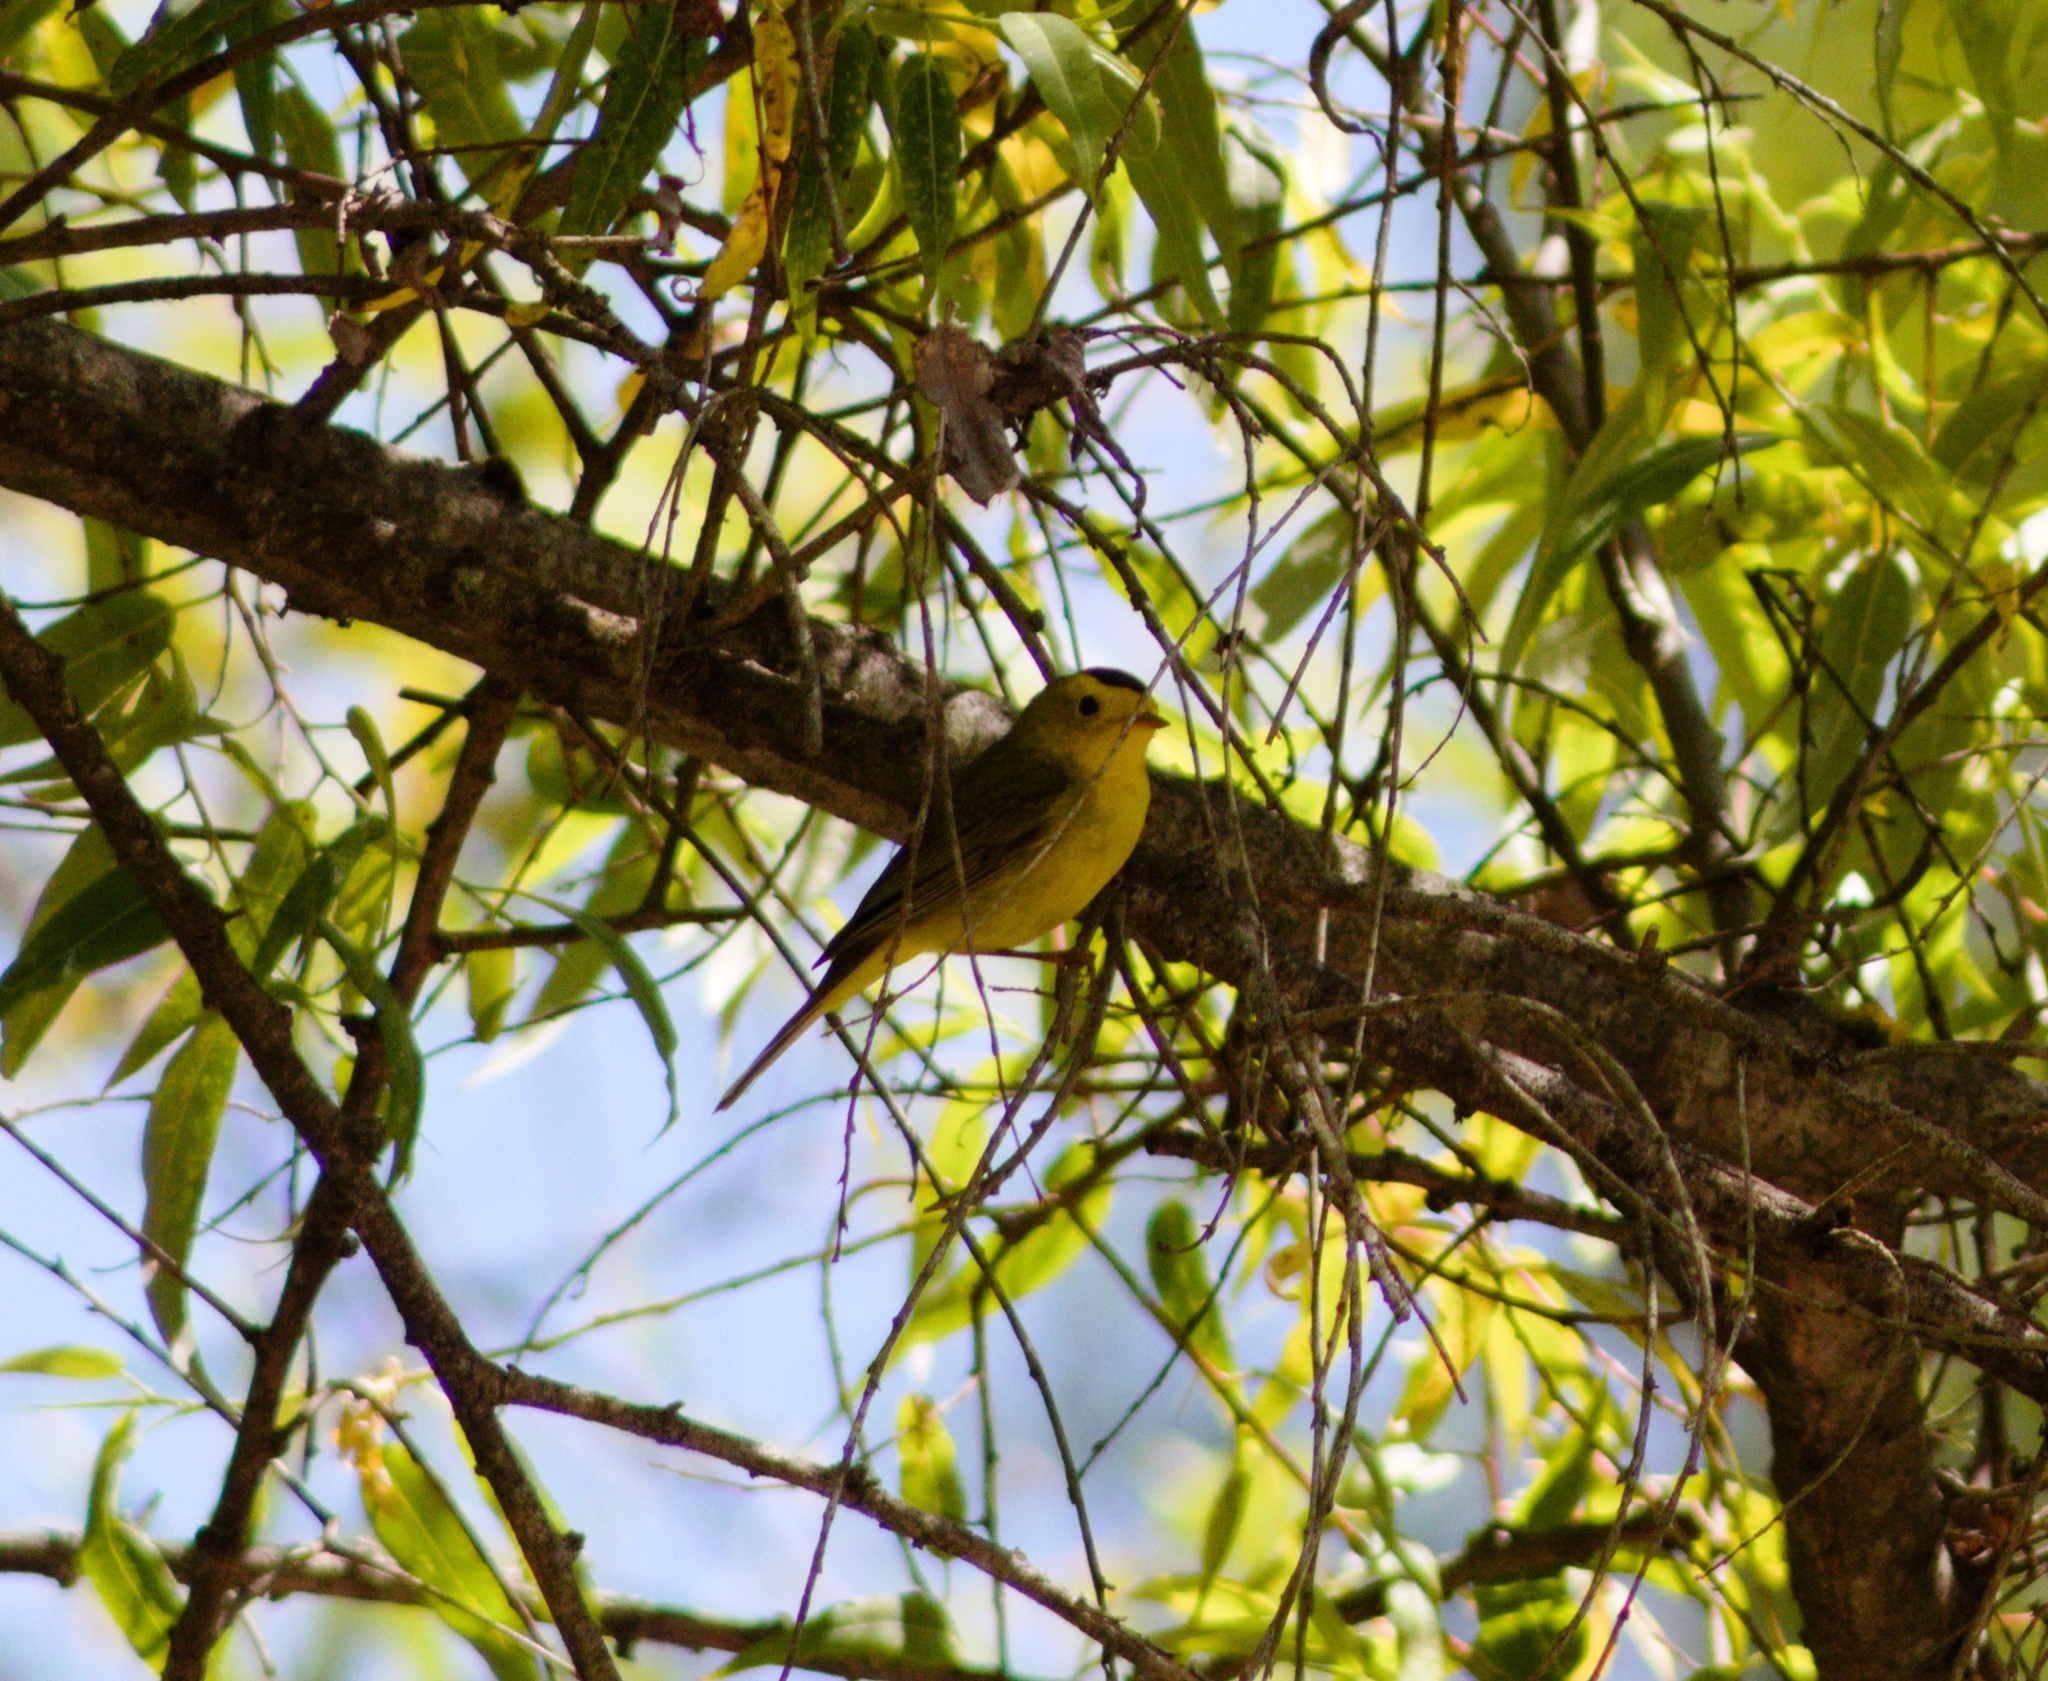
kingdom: Animalia
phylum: Chordata
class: Aves
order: Passeriformes
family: Parulidae
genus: Cardellina
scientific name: Cardellina pusilla
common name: Wilson's warbler
